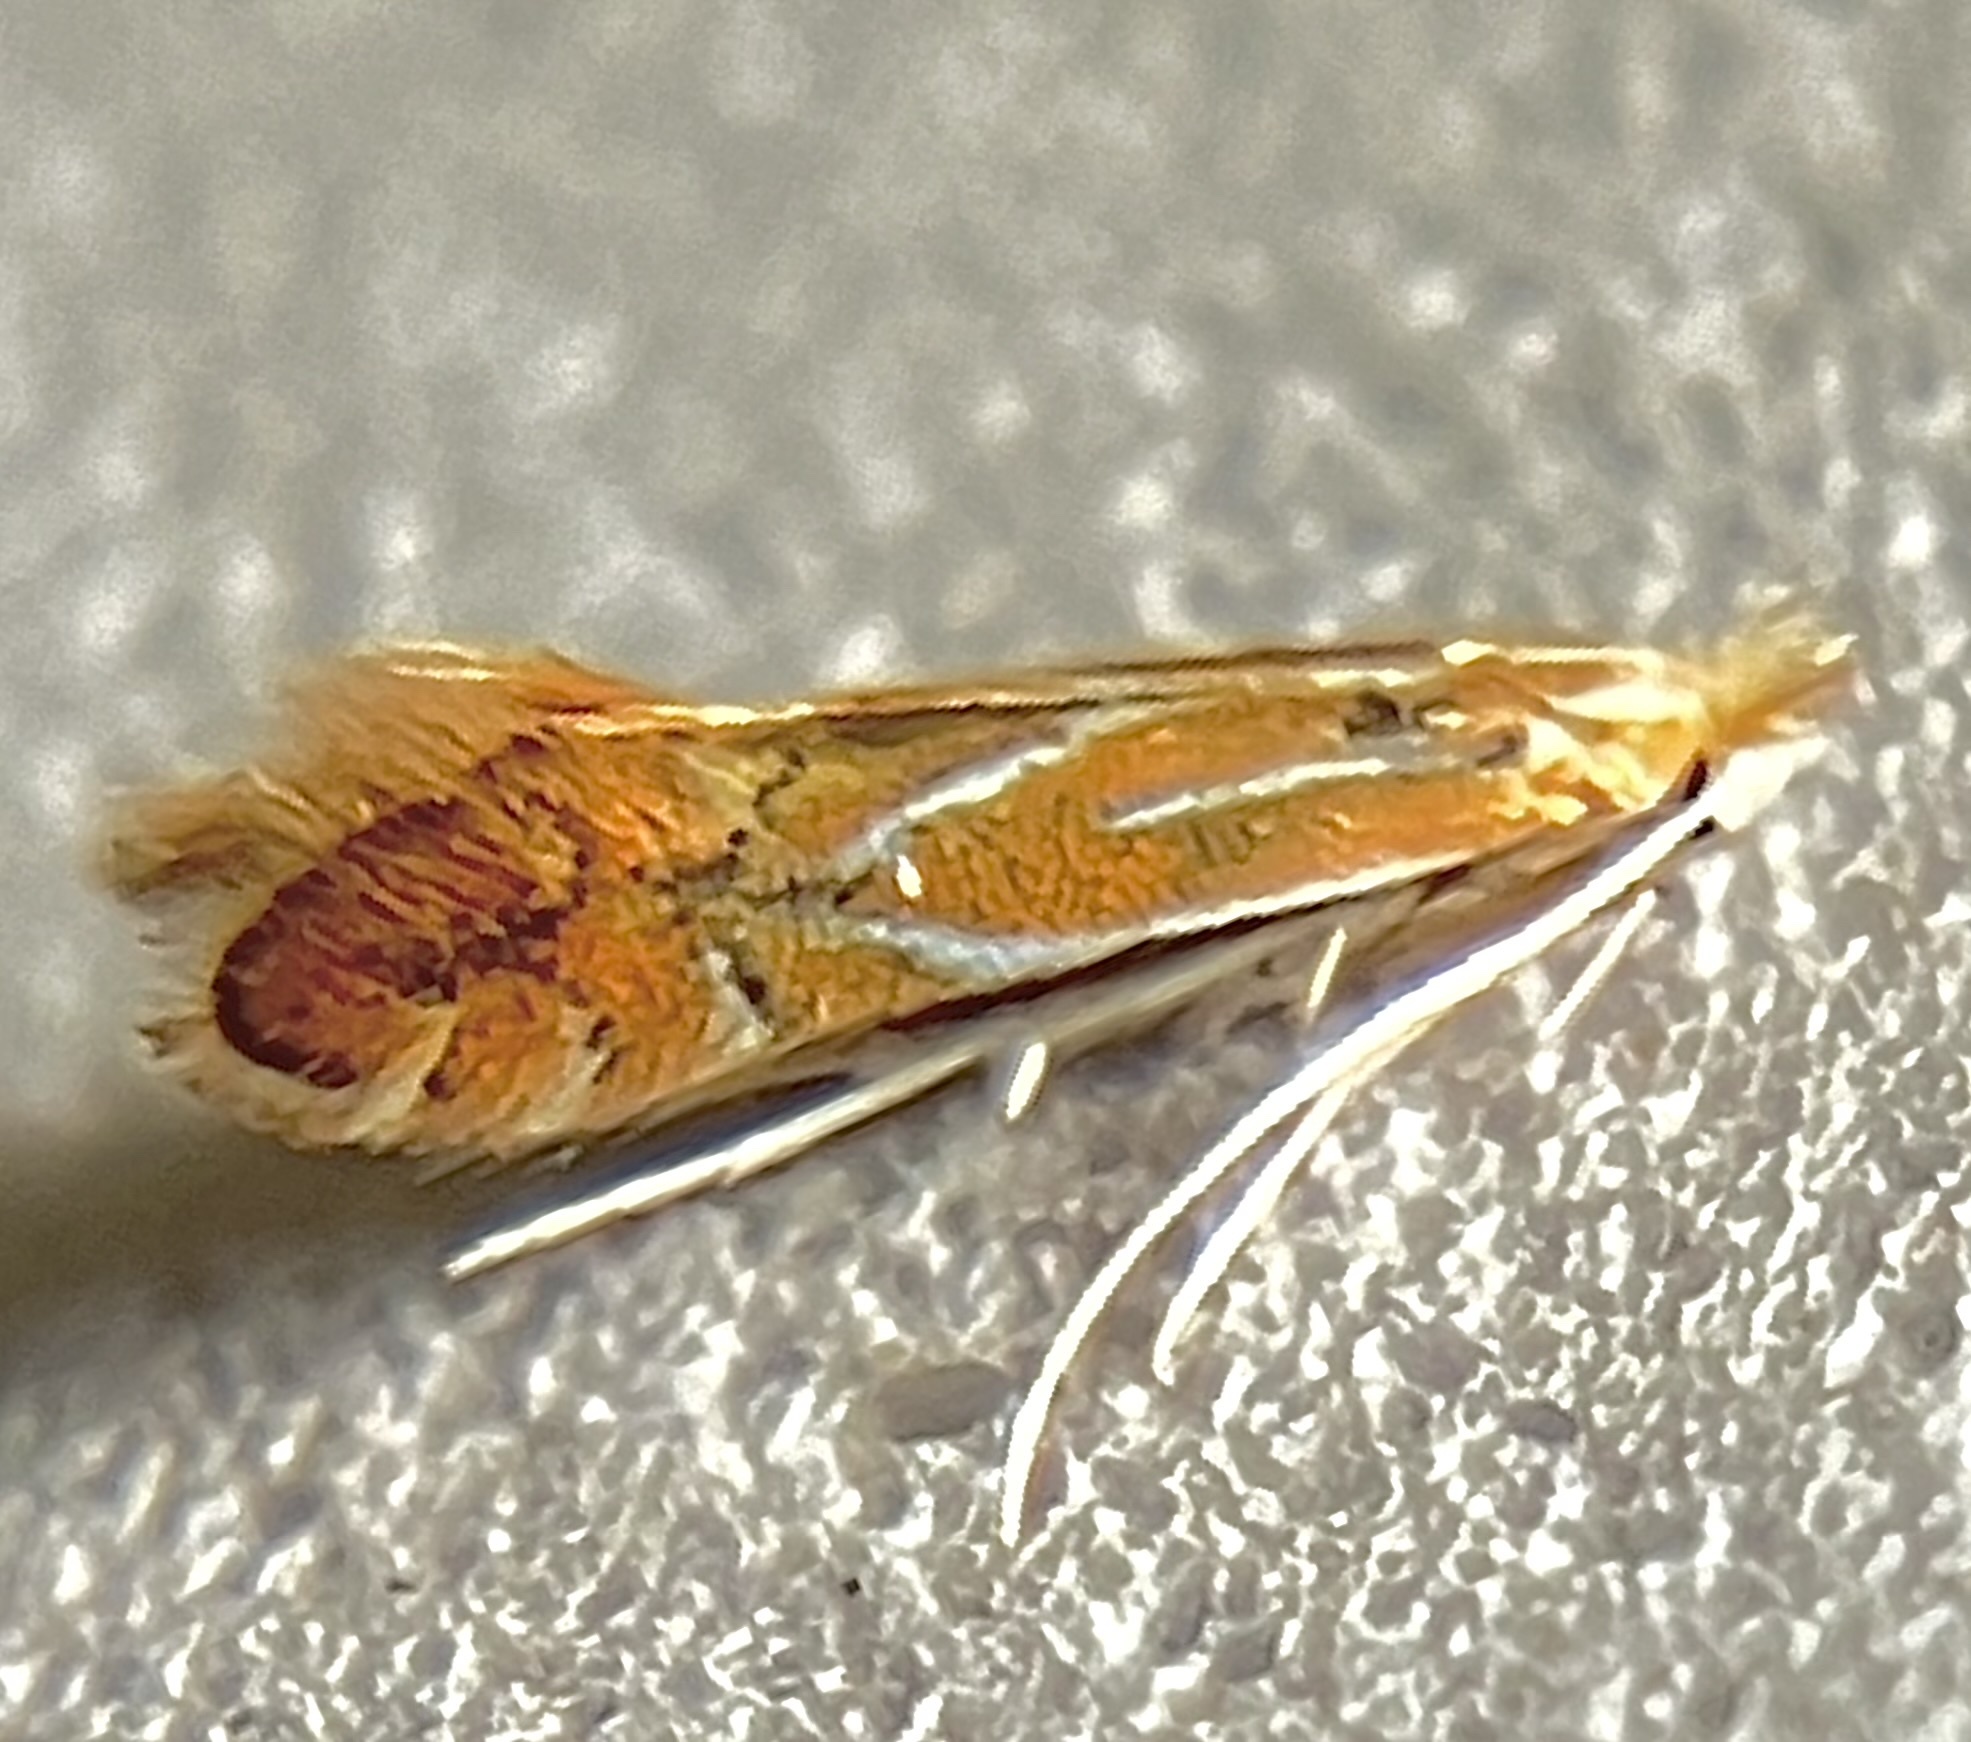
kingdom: Animalia
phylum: Arthropoda
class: Insecta
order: Lepidoptera
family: Gracillariidae
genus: Phyllonorycter
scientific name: Phyllonorycter basistrigella
